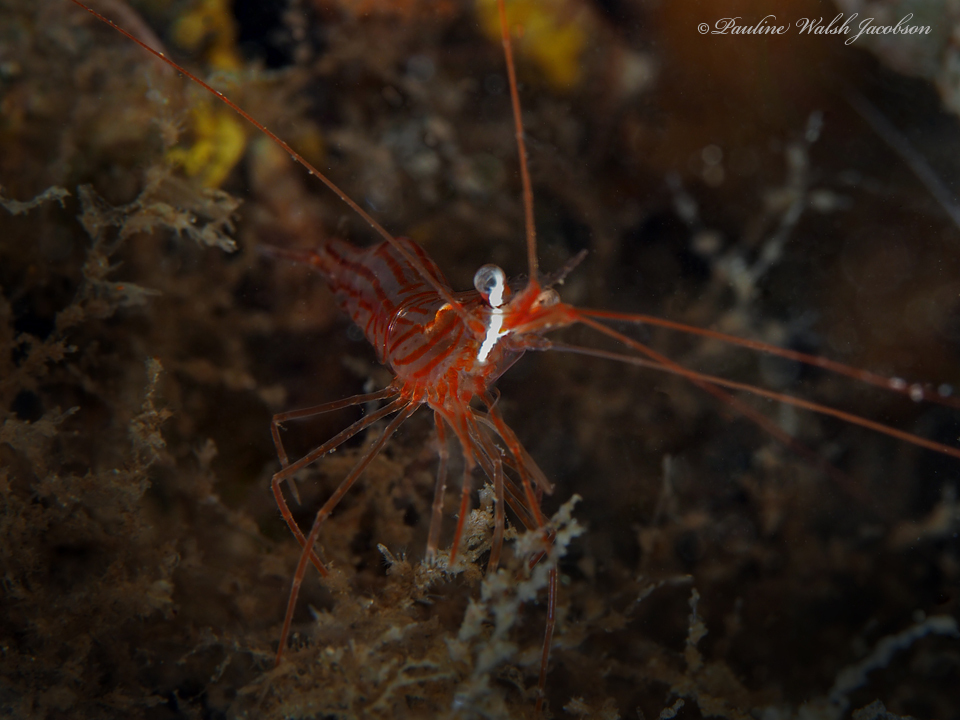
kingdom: Animalia
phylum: Arthropoda
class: Malacostraca
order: Decapoda
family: Lysmatidae
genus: Lysmata
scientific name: Lysmata rafa
